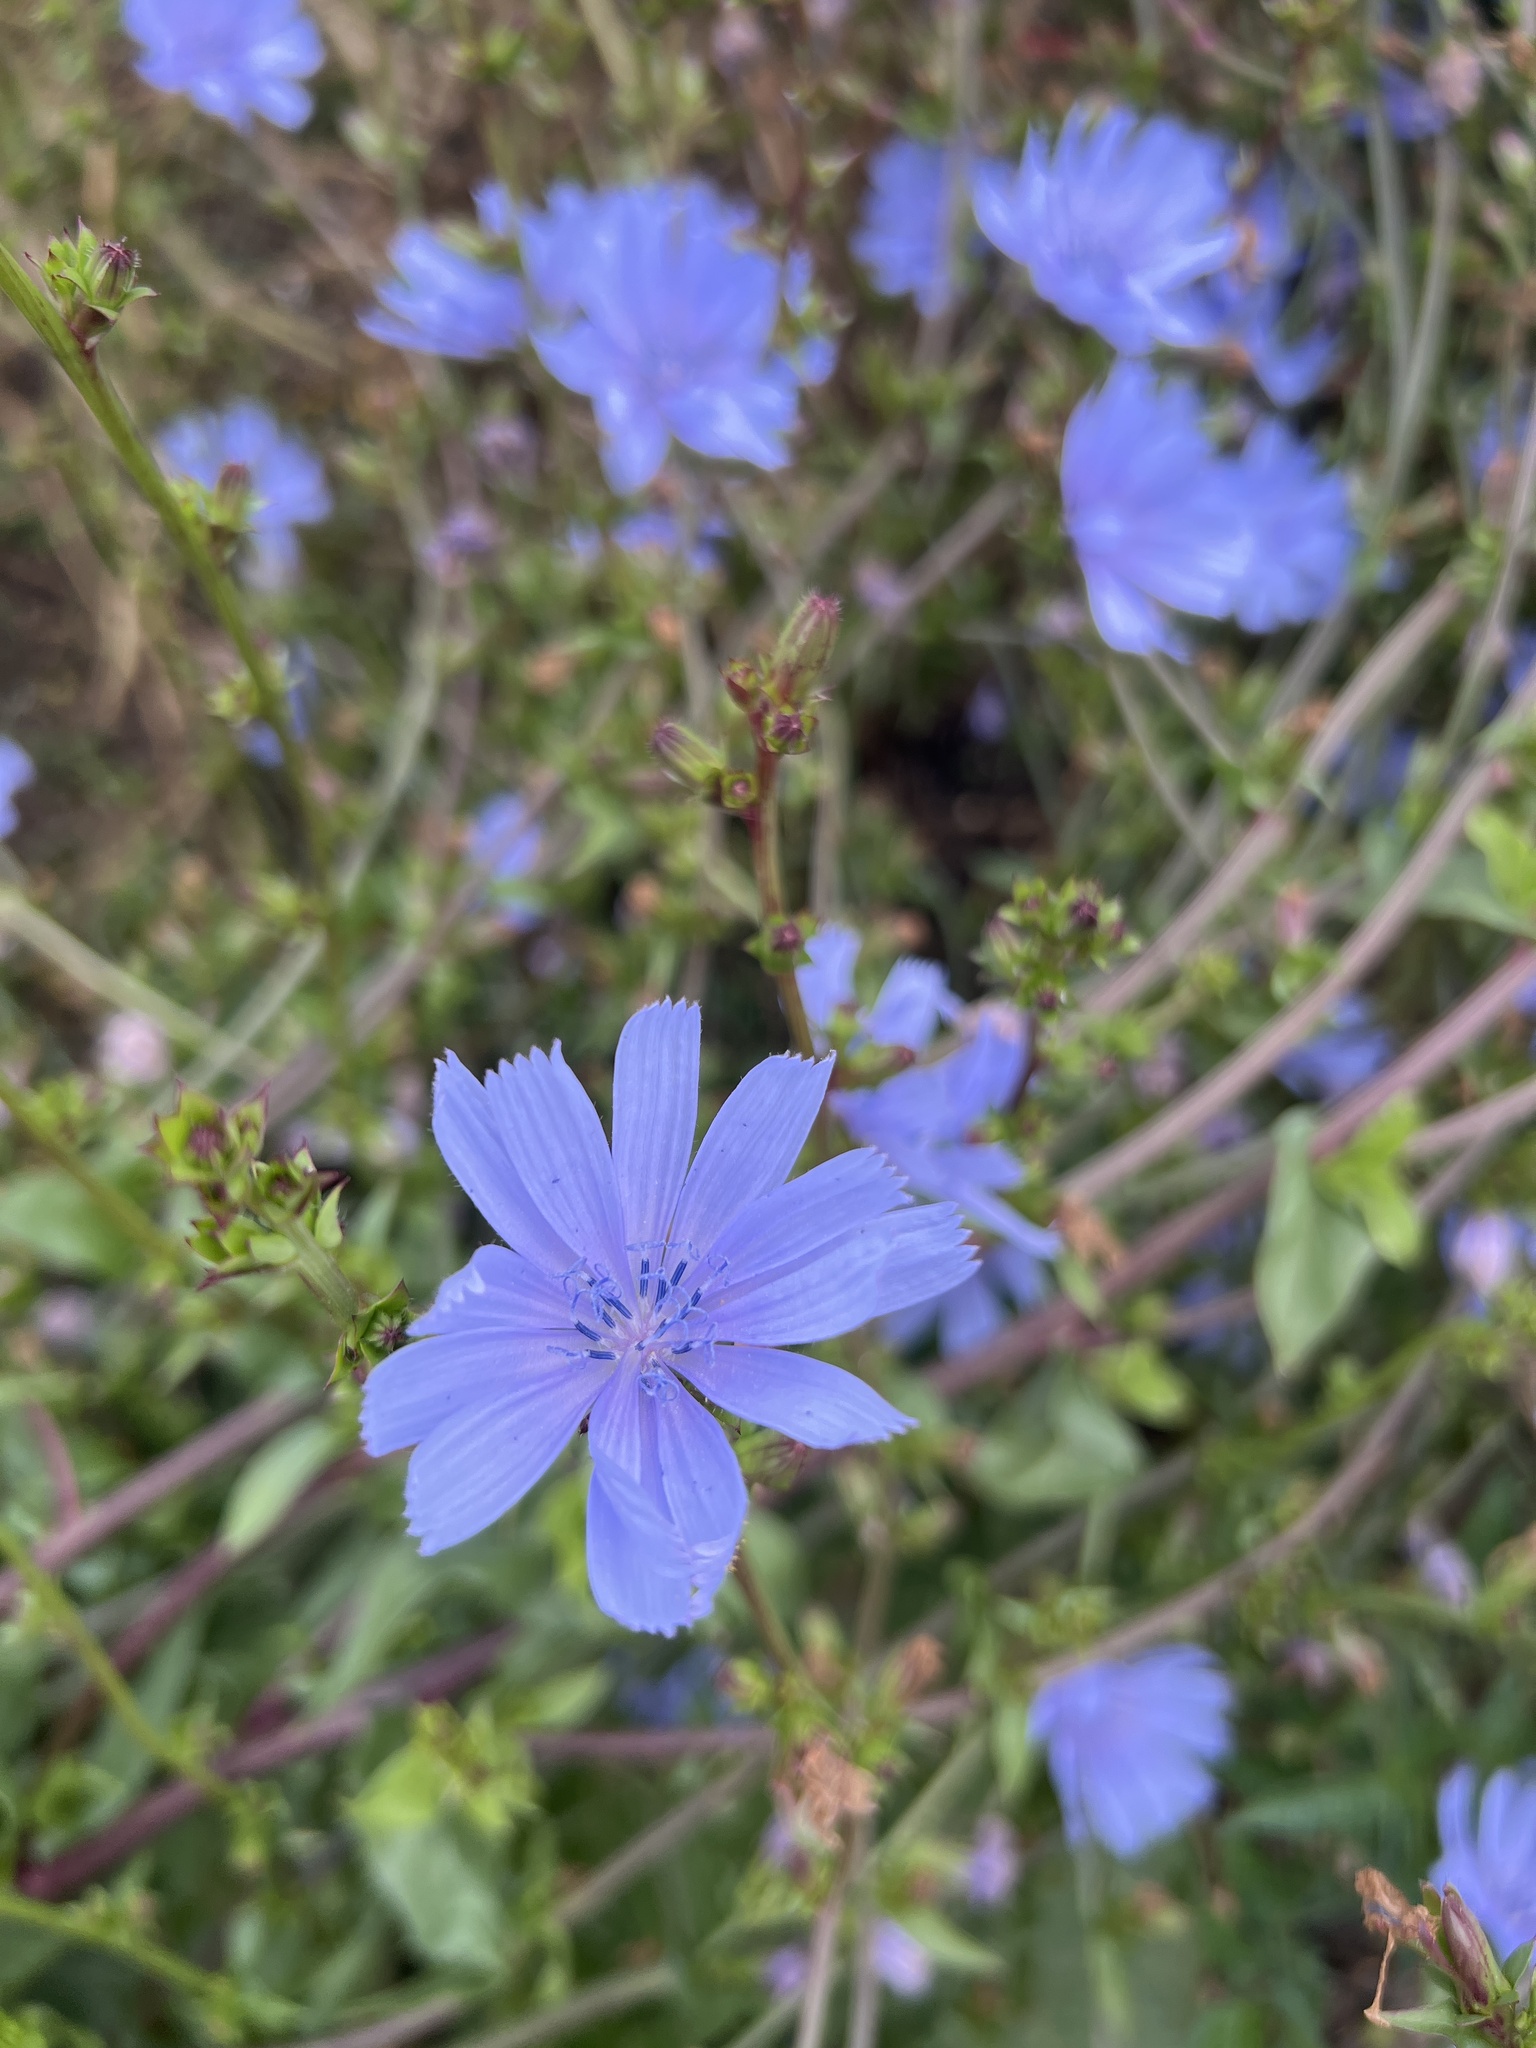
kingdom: Plantae
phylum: Tracheophyta
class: Magnoliopsida
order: Asterales
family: Asteraceae
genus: Cichorium
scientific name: Cichorium intybus
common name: Chicory
